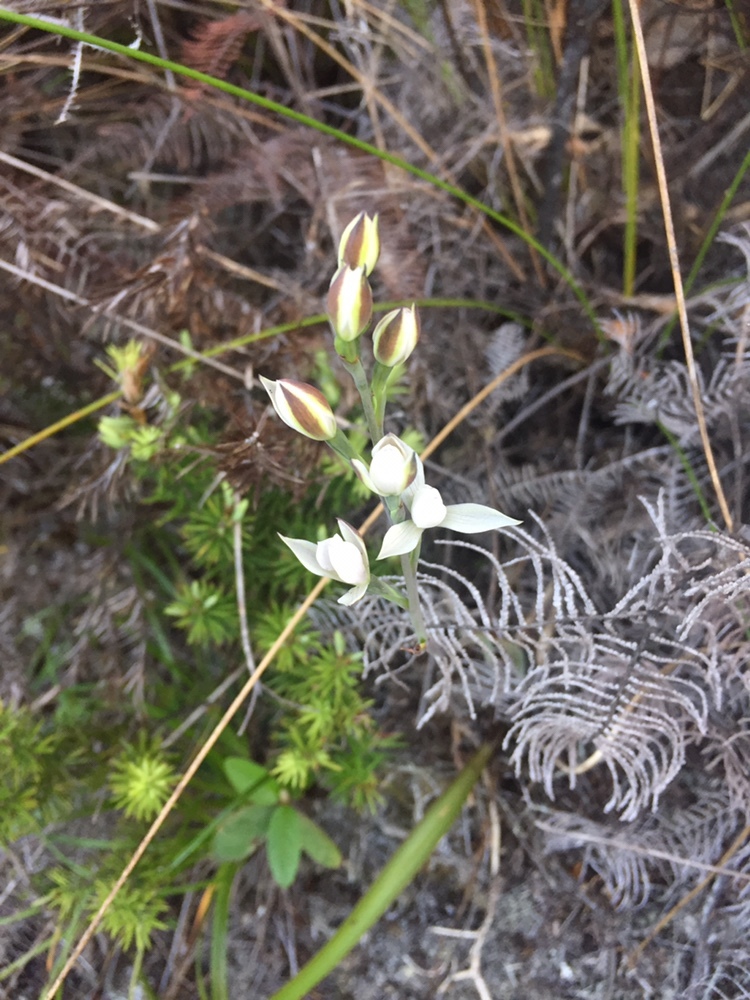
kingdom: Plantae
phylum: Tracheophyta
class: Liliopsida
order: Asparagales
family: Orchidaceae
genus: Thelymitra
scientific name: Thelymitra longifolia
